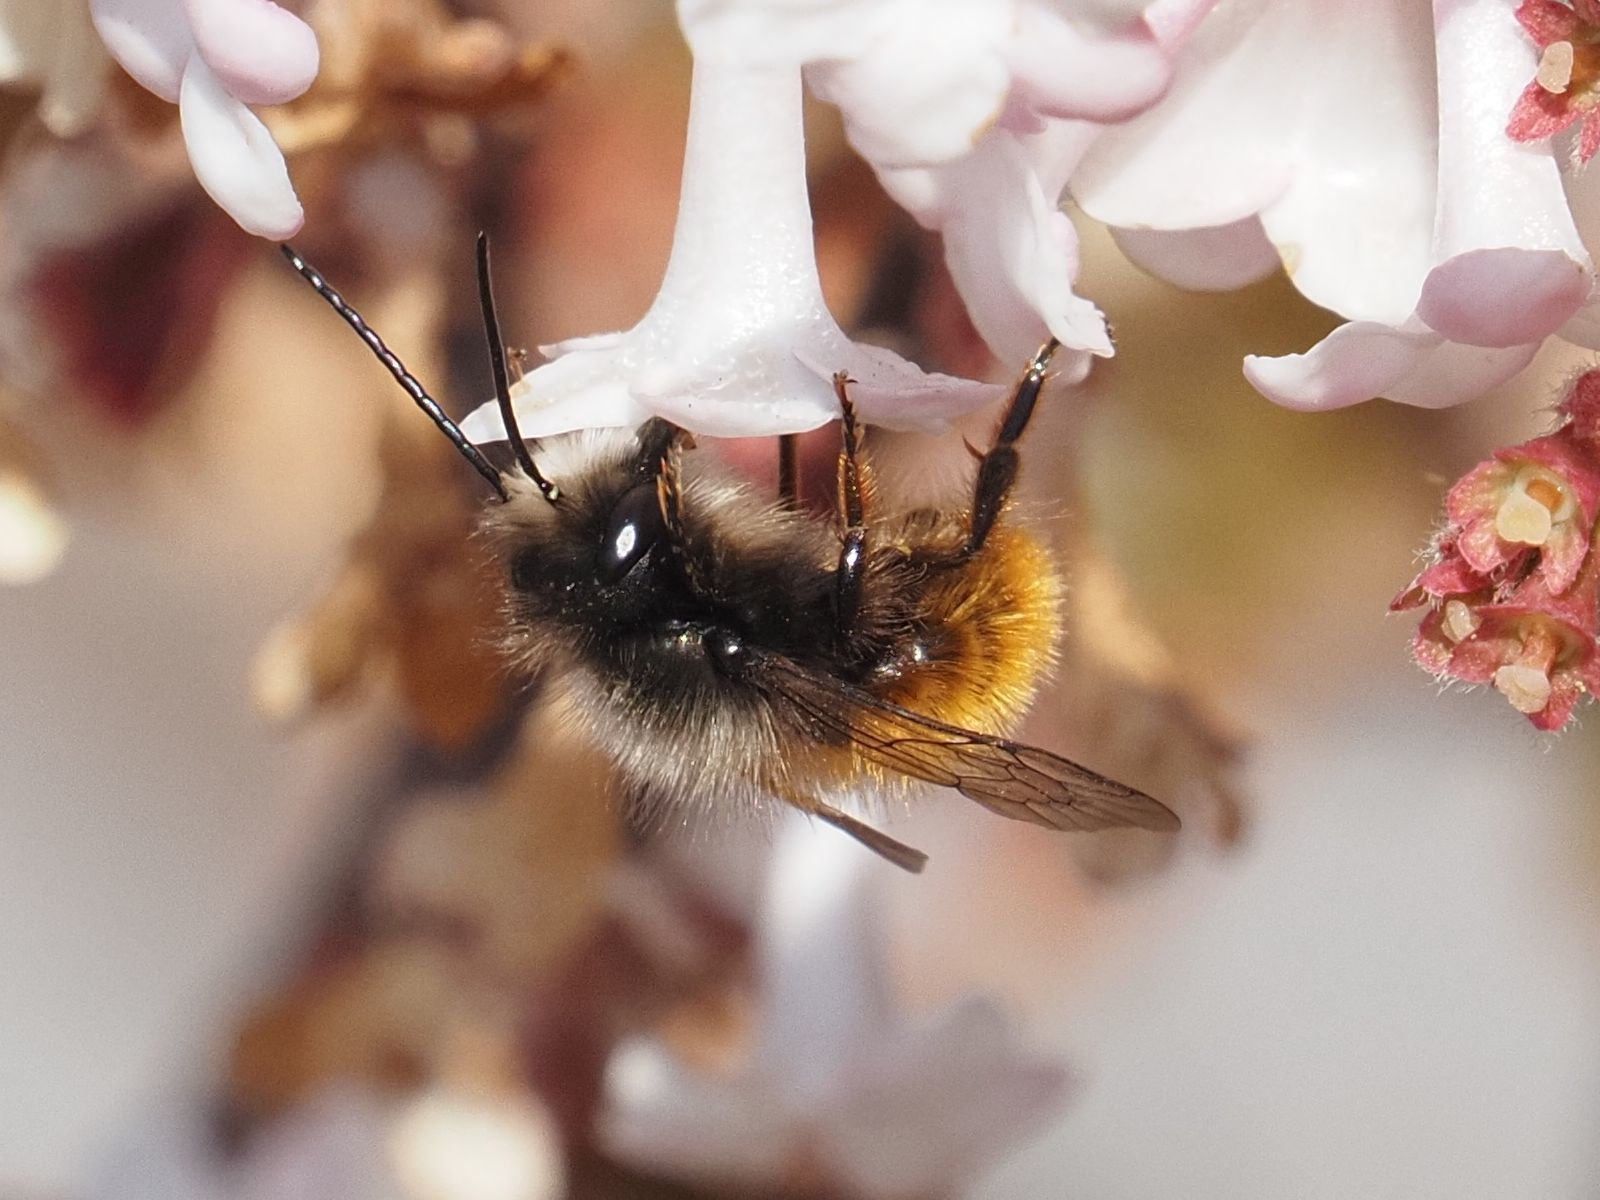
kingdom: Animalia
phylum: Arthropoda
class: Insecta
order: Hymenoptera
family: Megachilidae
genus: Osmia
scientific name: Osmia cornuta
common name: Mason bee
